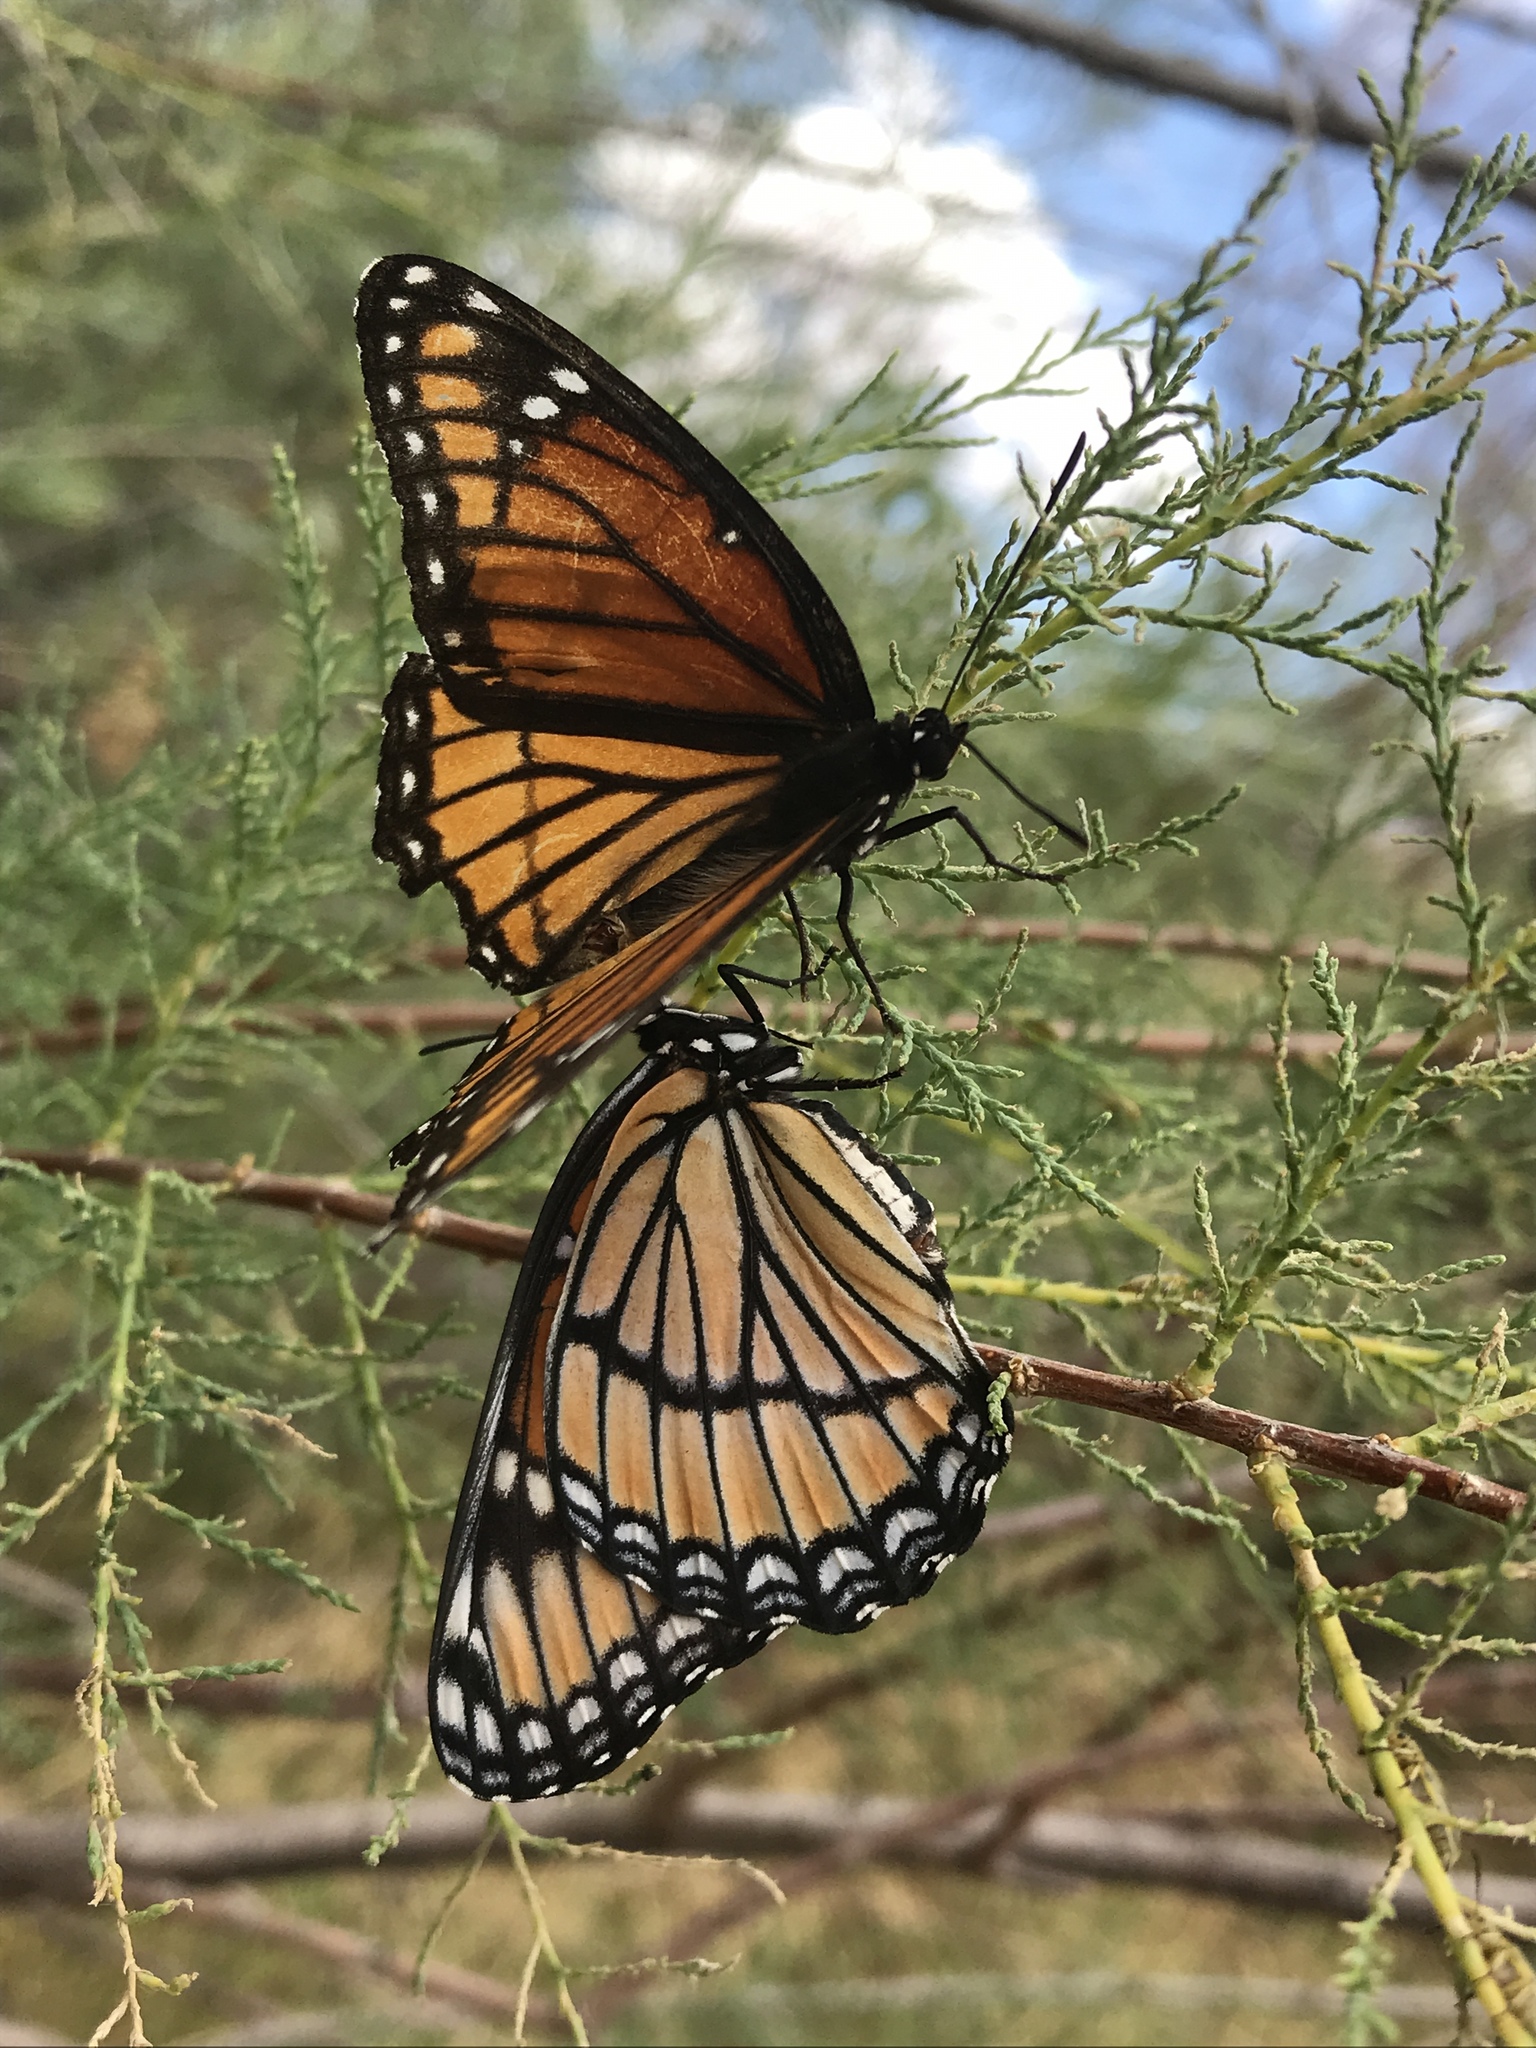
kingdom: Animalia
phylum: Arthropoda
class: Insecta
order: Lepidoptera
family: Nymphalidae
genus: Limenitis
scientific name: Limenitis archippus
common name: Viceroy
